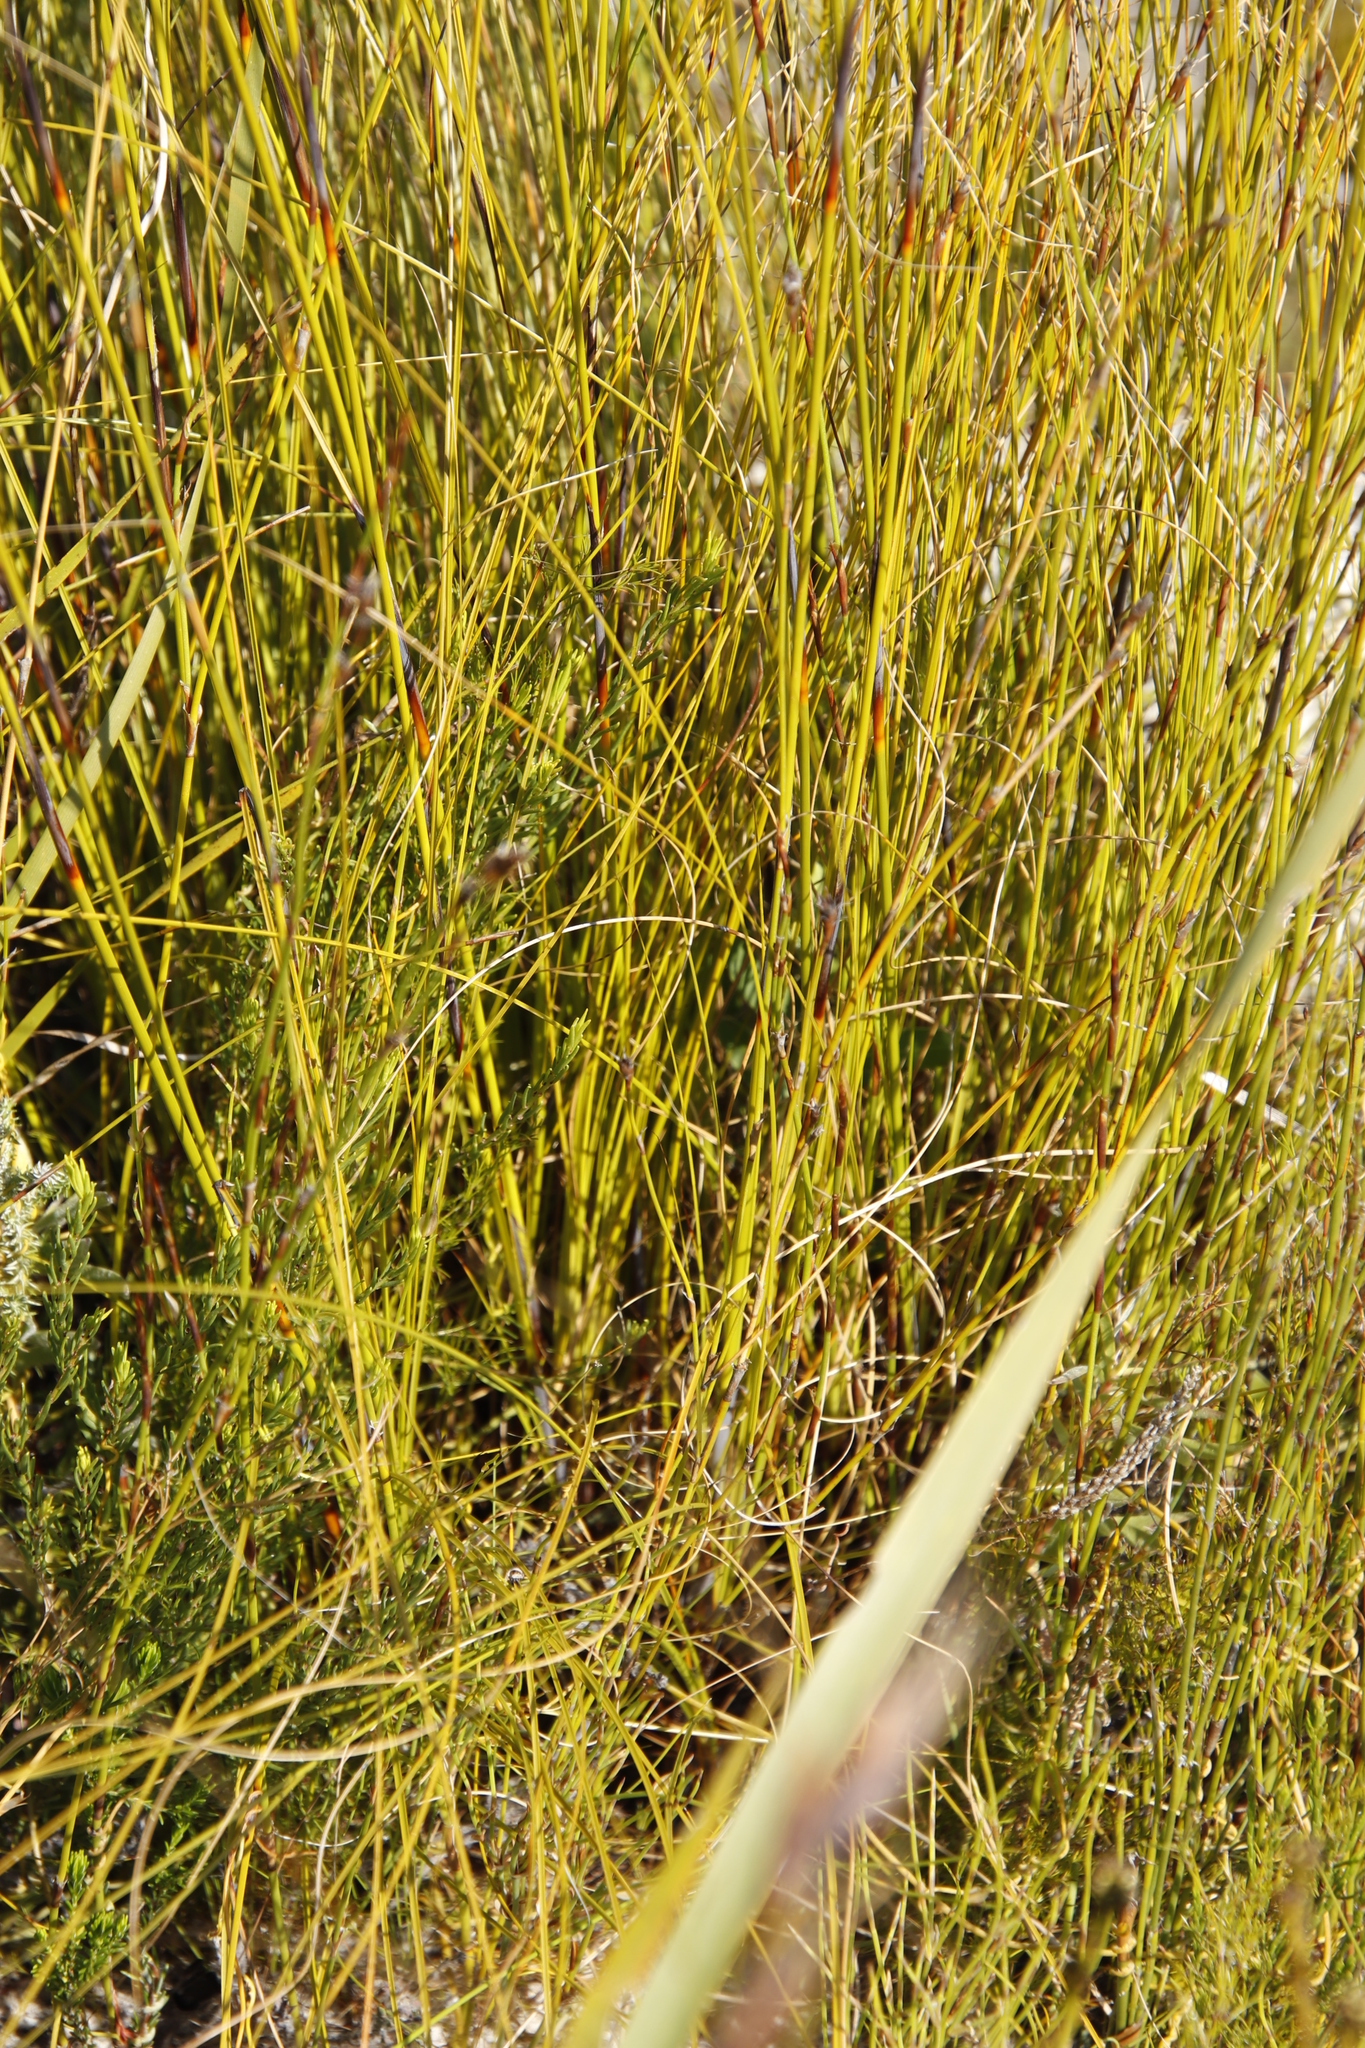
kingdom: Plantae
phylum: Tracheophyta
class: Liliopsida
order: Poales
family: Cyperaceae
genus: Tetraria
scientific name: Tetraria ustulata
